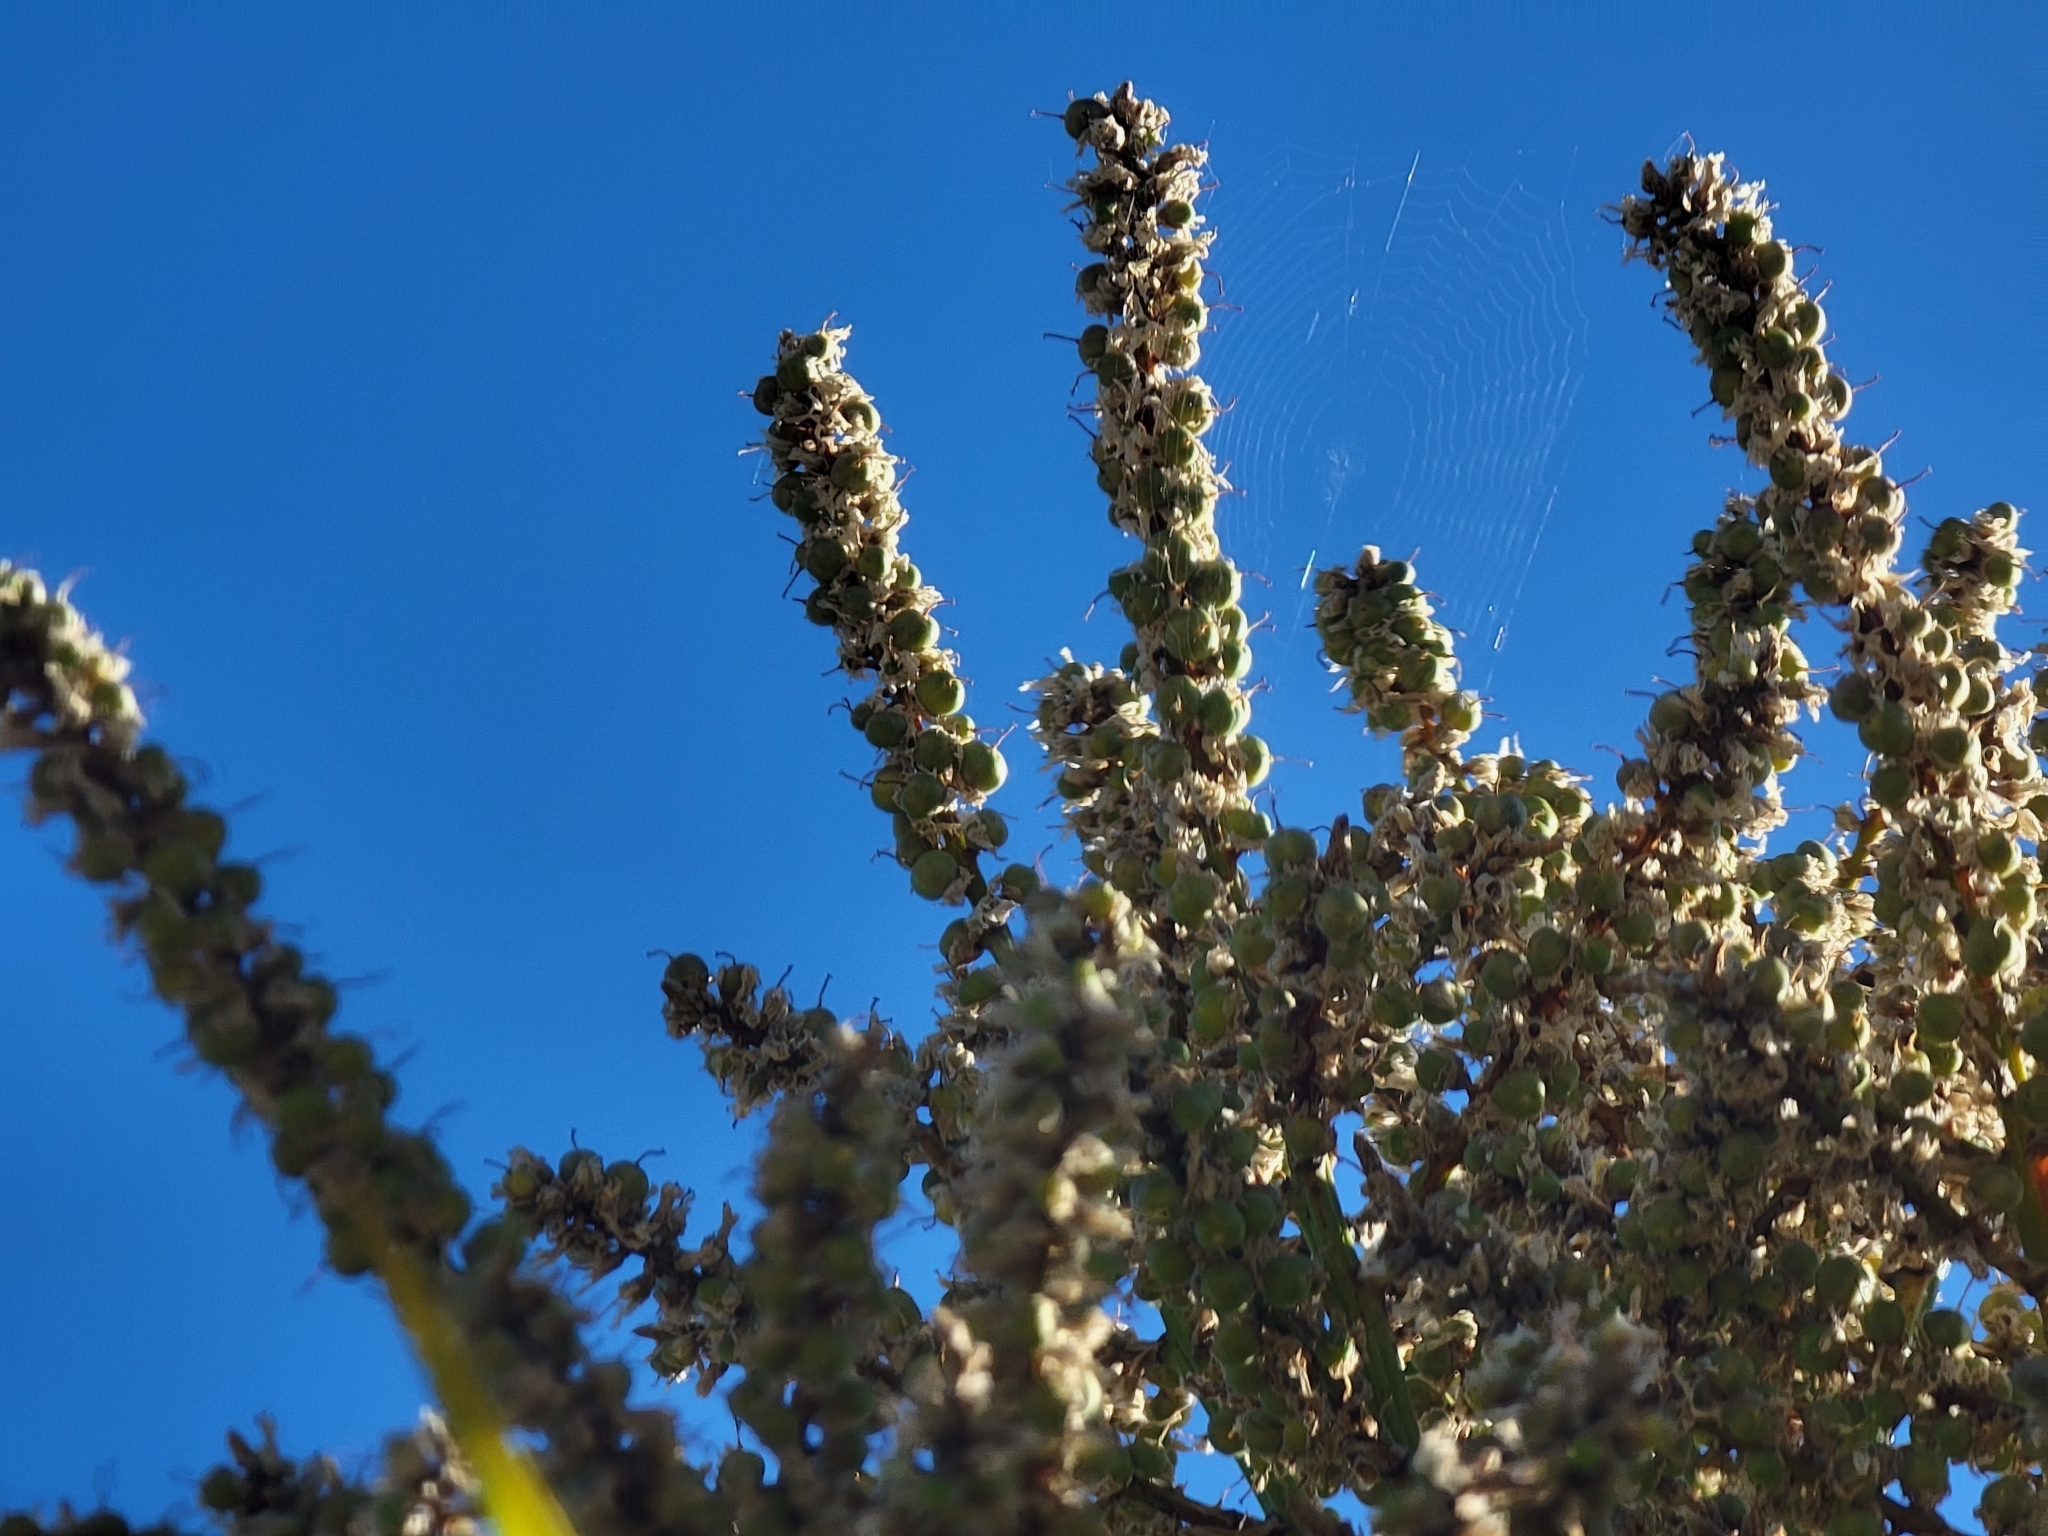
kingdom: Plantae
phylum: Tracheophyta
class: Liliopsida
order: Asparagales
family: Asparagaceae
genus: Cordyline
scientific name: Cordyline australis
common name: Cabbage-palm
